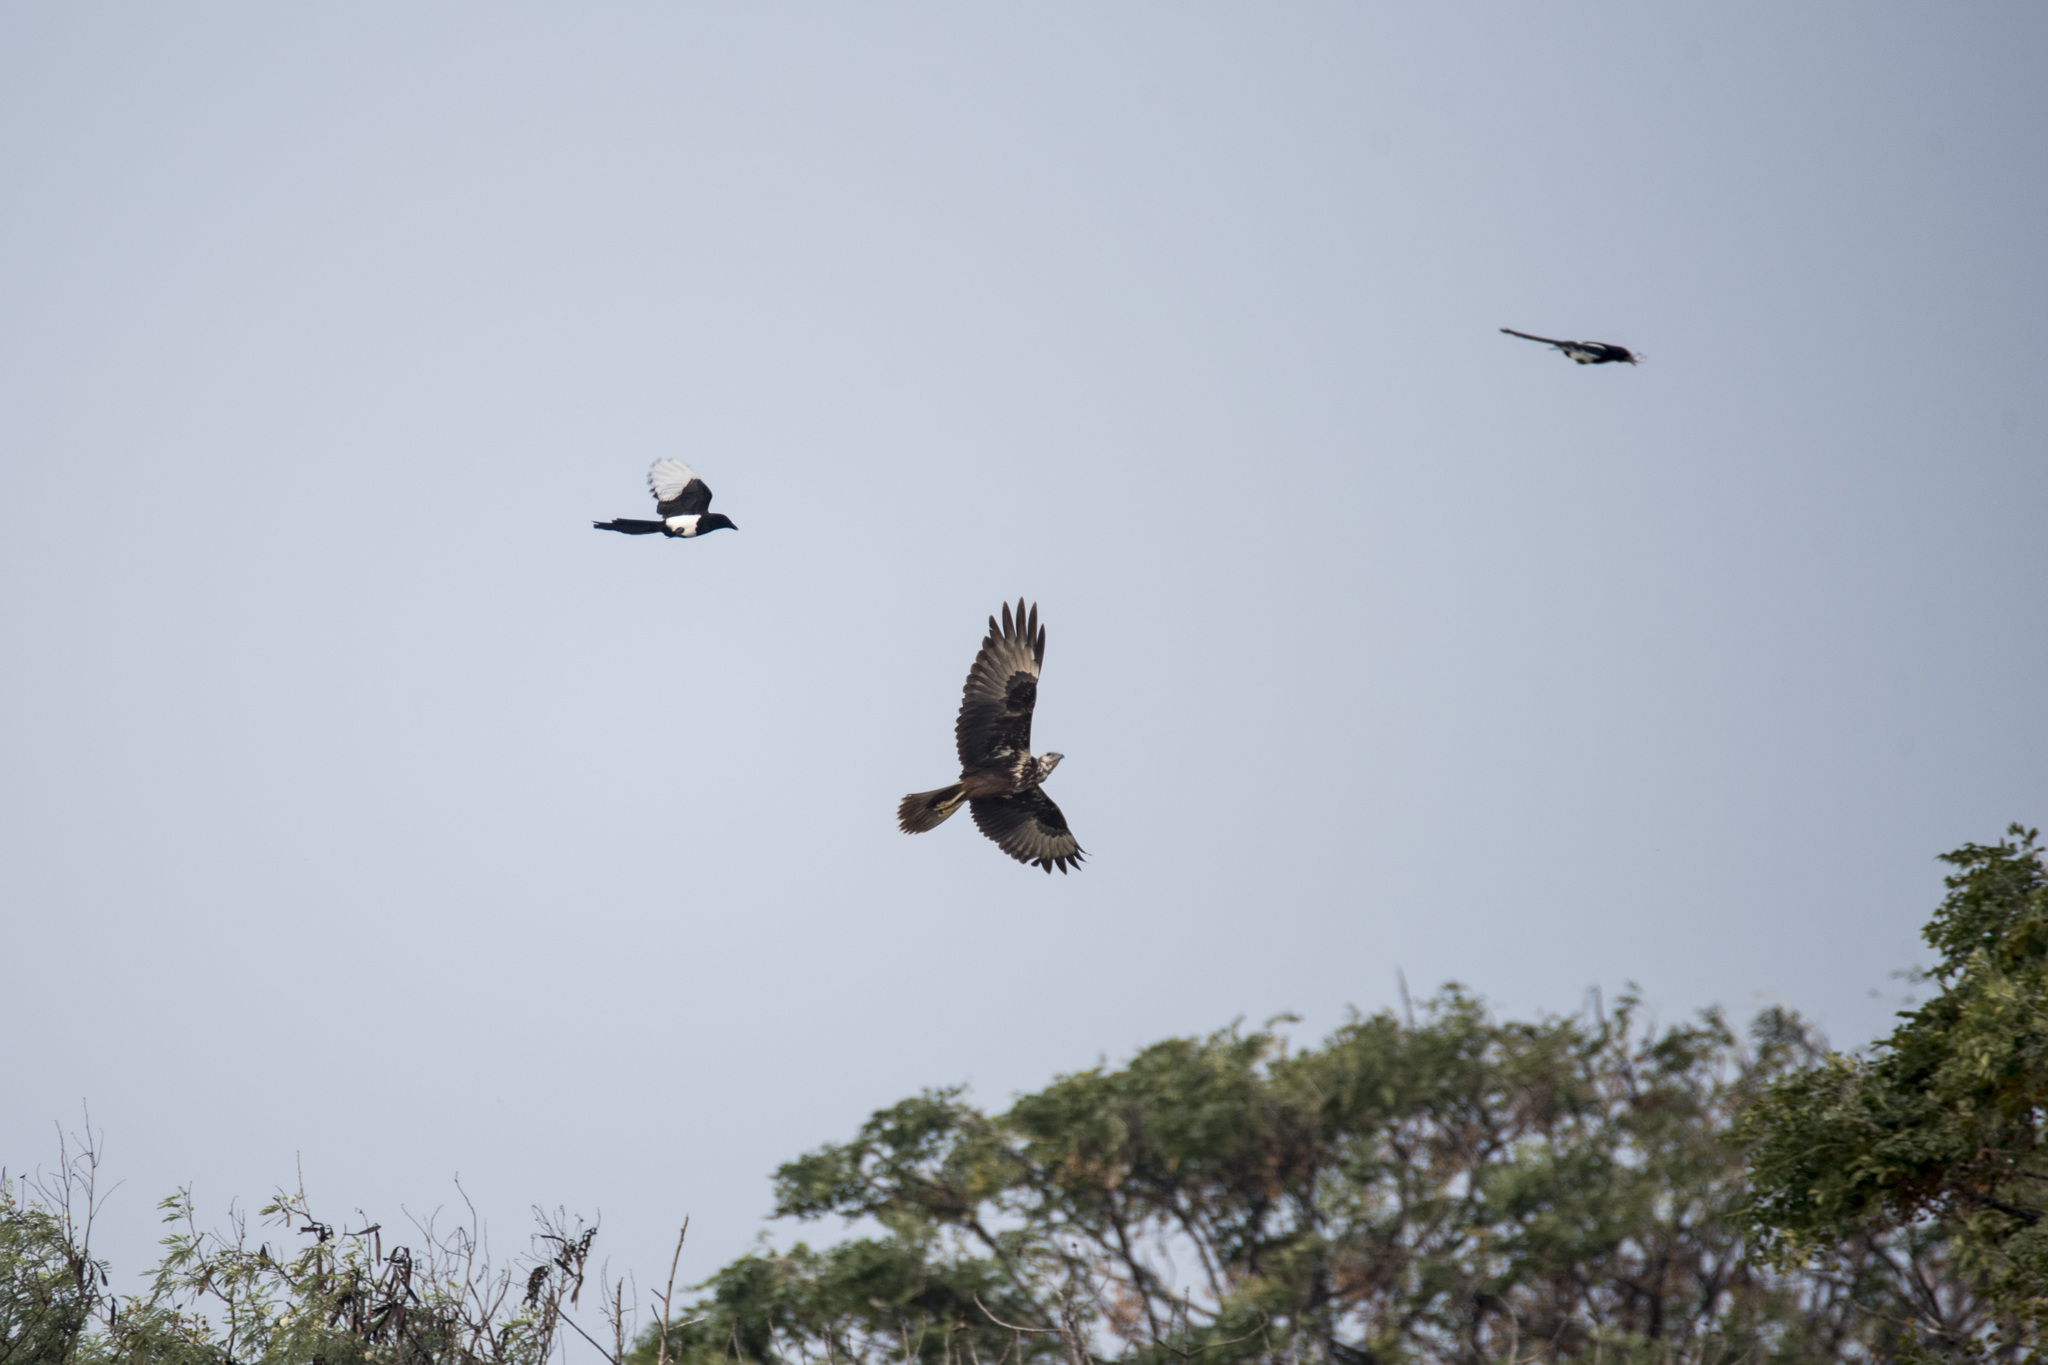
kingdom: Animalia
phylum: Chordata
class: Aves
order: Accipitriformes
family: Accipitridae
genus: Circus
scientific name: Circus spilonotus
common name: Eastern marsh-harrier
